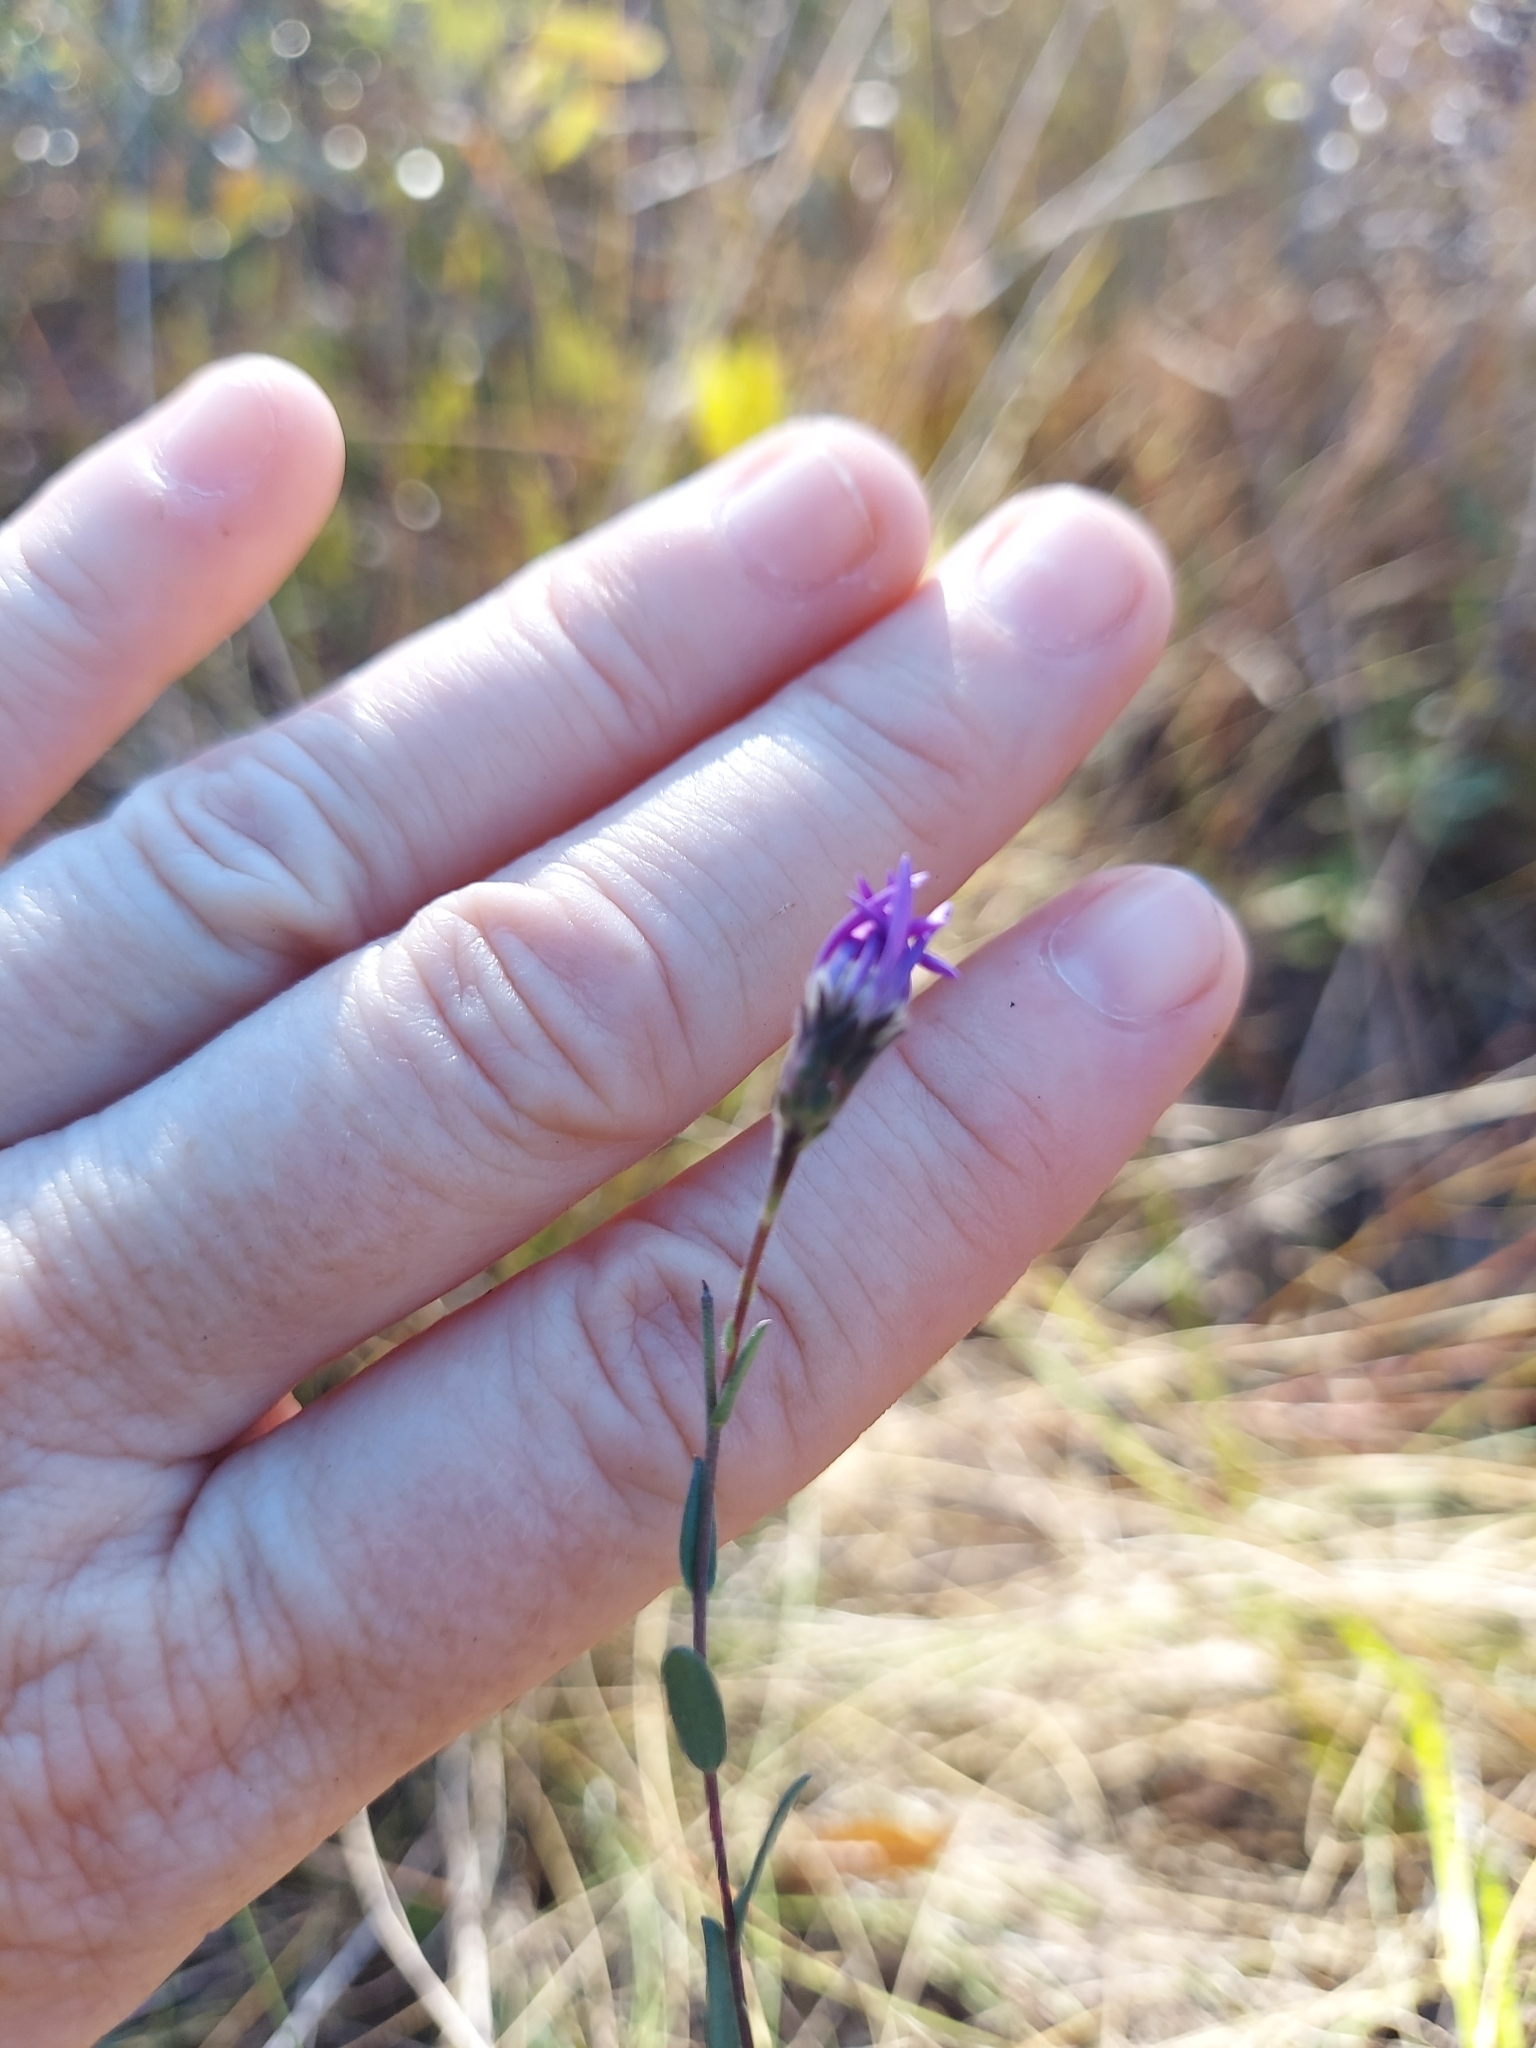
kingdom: Plantae
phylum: Tracheophyta
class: Magnoliopsida
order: Asterales
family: Asteraceae
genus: Symphyotrichum
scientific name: Symphyotrichum concolor
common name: Eastern silver aster
